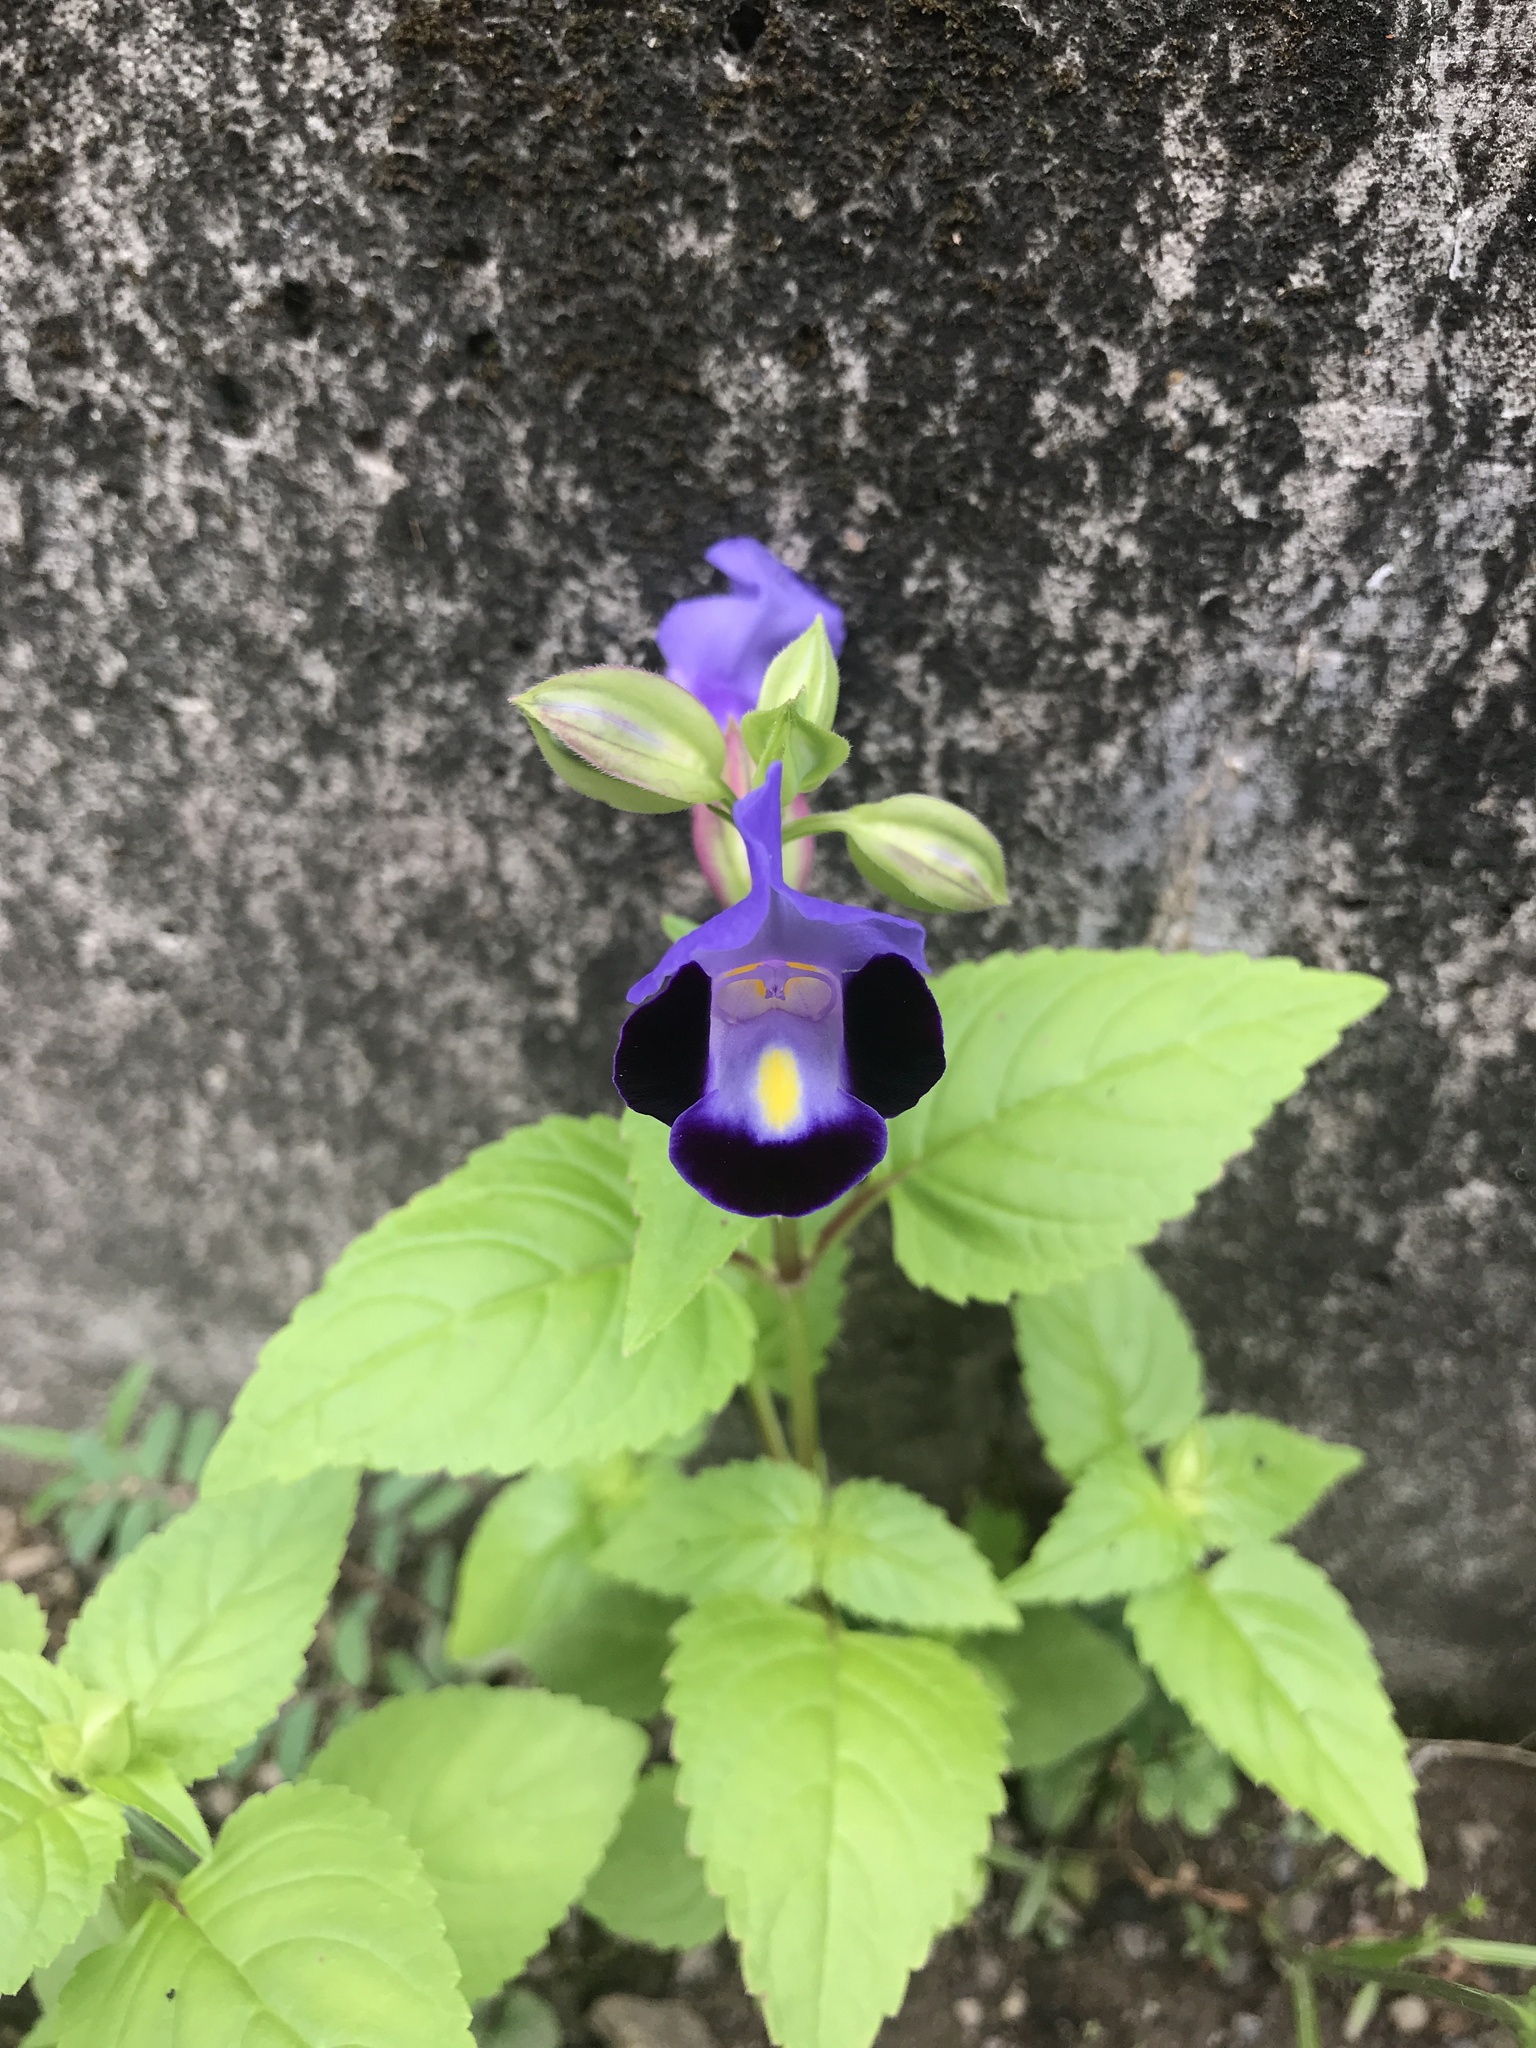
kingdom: Plantae
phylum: Tracheophyta
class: Magnoliopsida
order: Lamiales
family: Linderniaceae
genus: Torenia
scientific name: Torenia fournieri
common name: Bluewings
